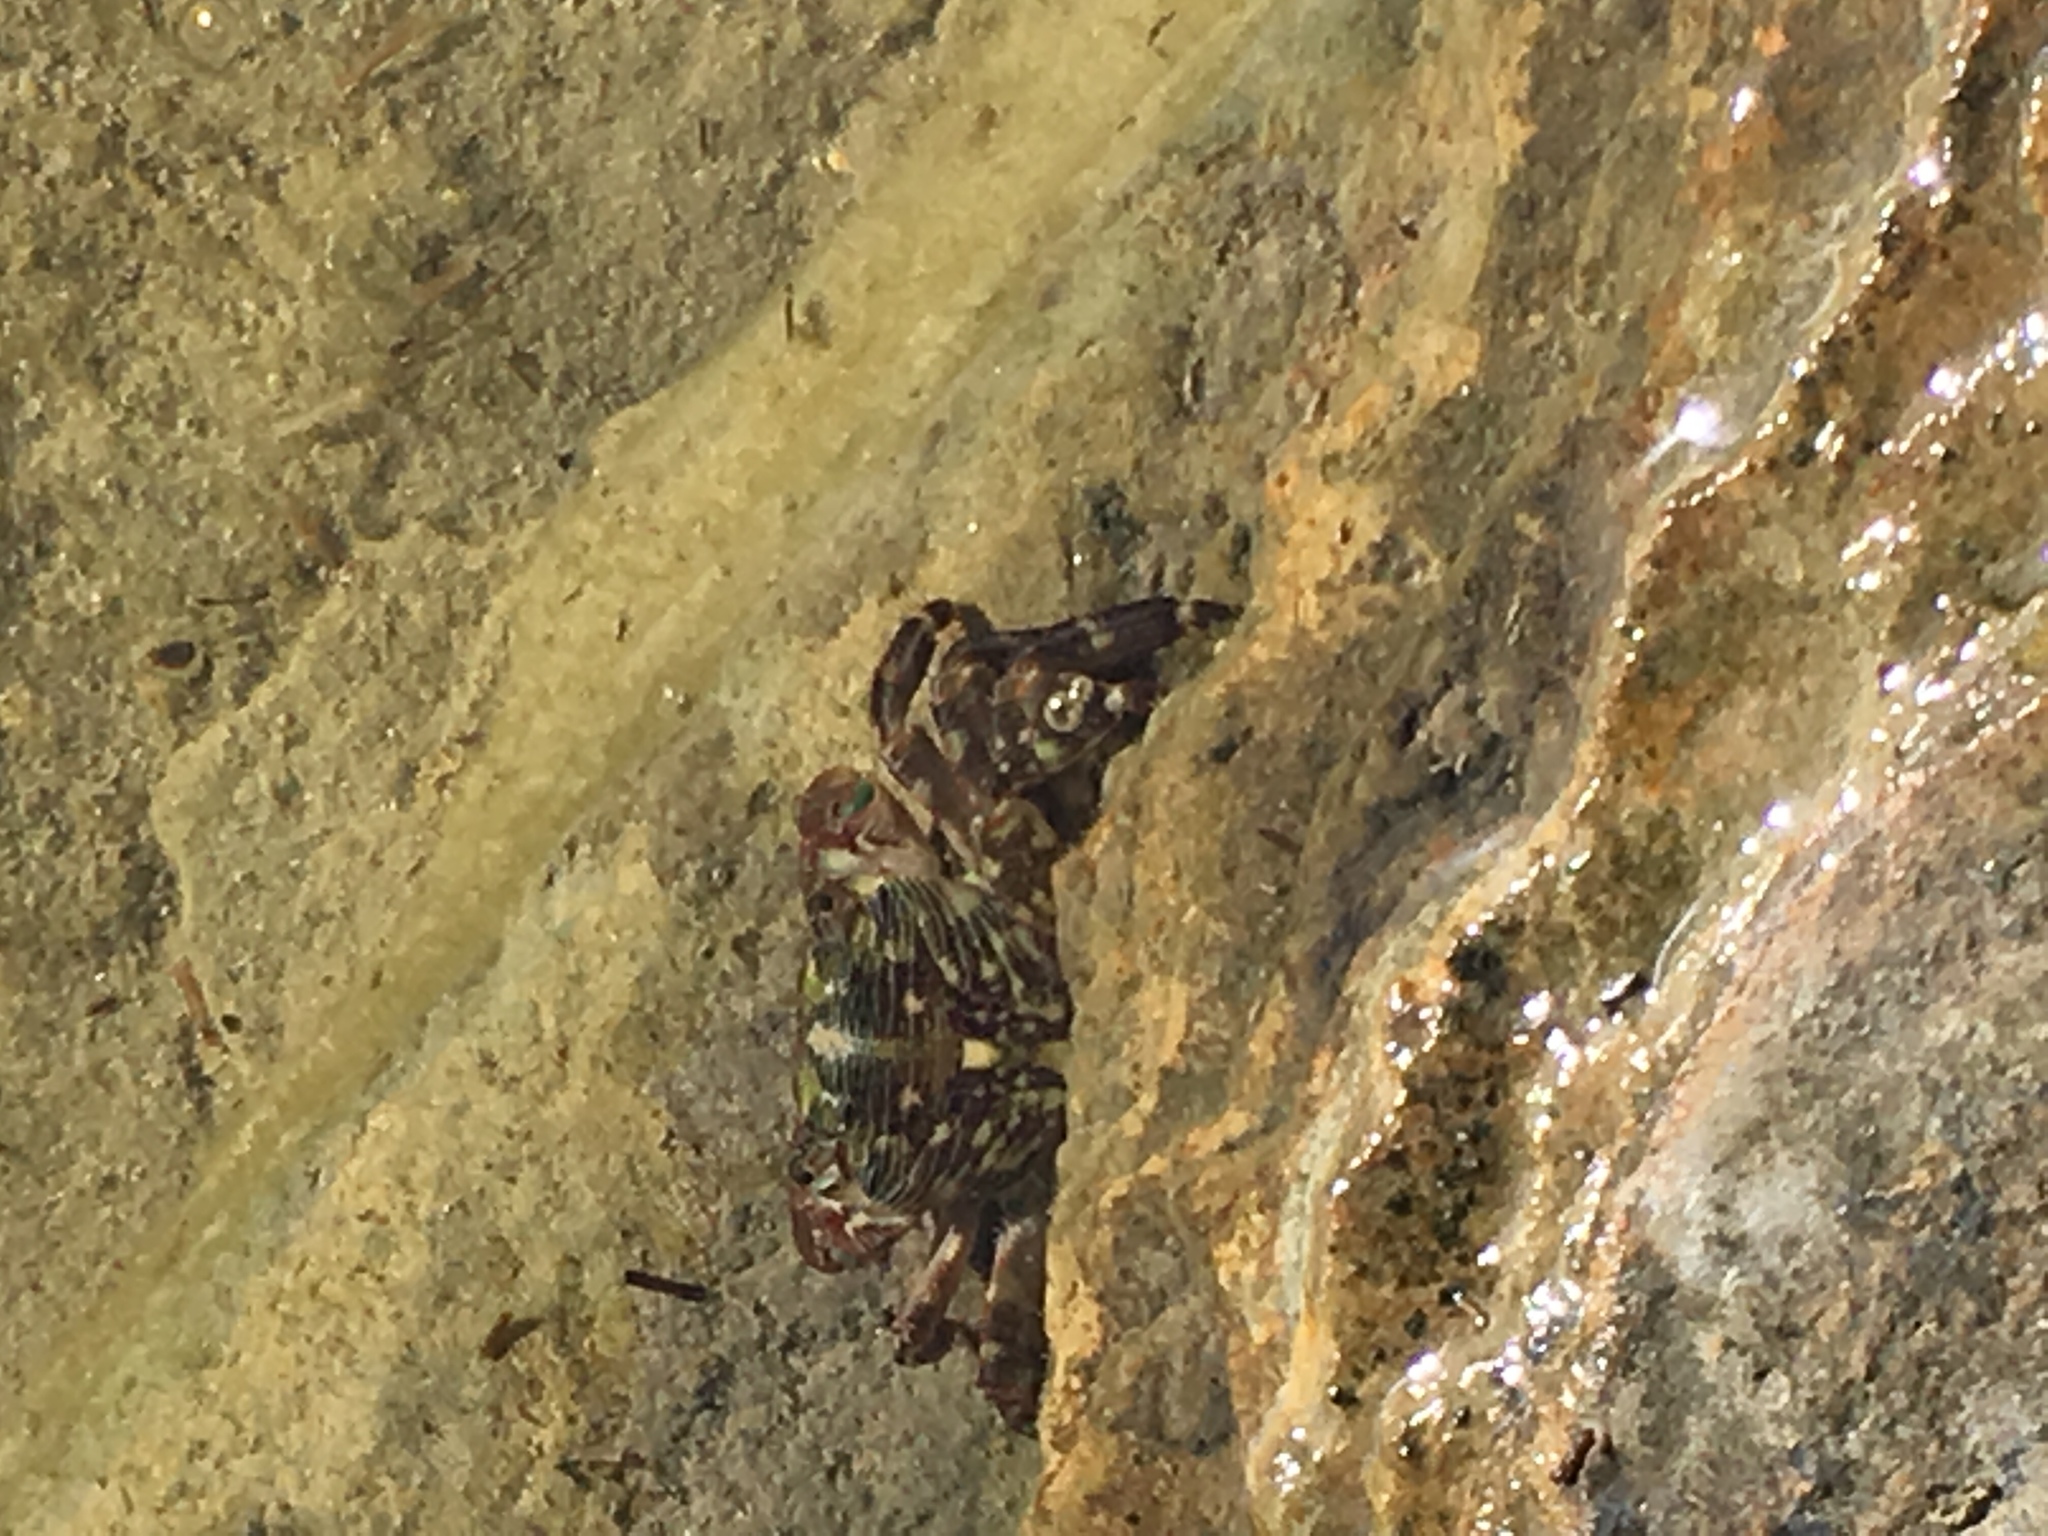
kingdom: Animalia
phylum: Arthropoda
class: Malacostraca
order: Decapoda
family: Grapsidae
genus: Pachygrapsus
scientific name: Pachygrapsus crassipes
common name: Striped shore crab
